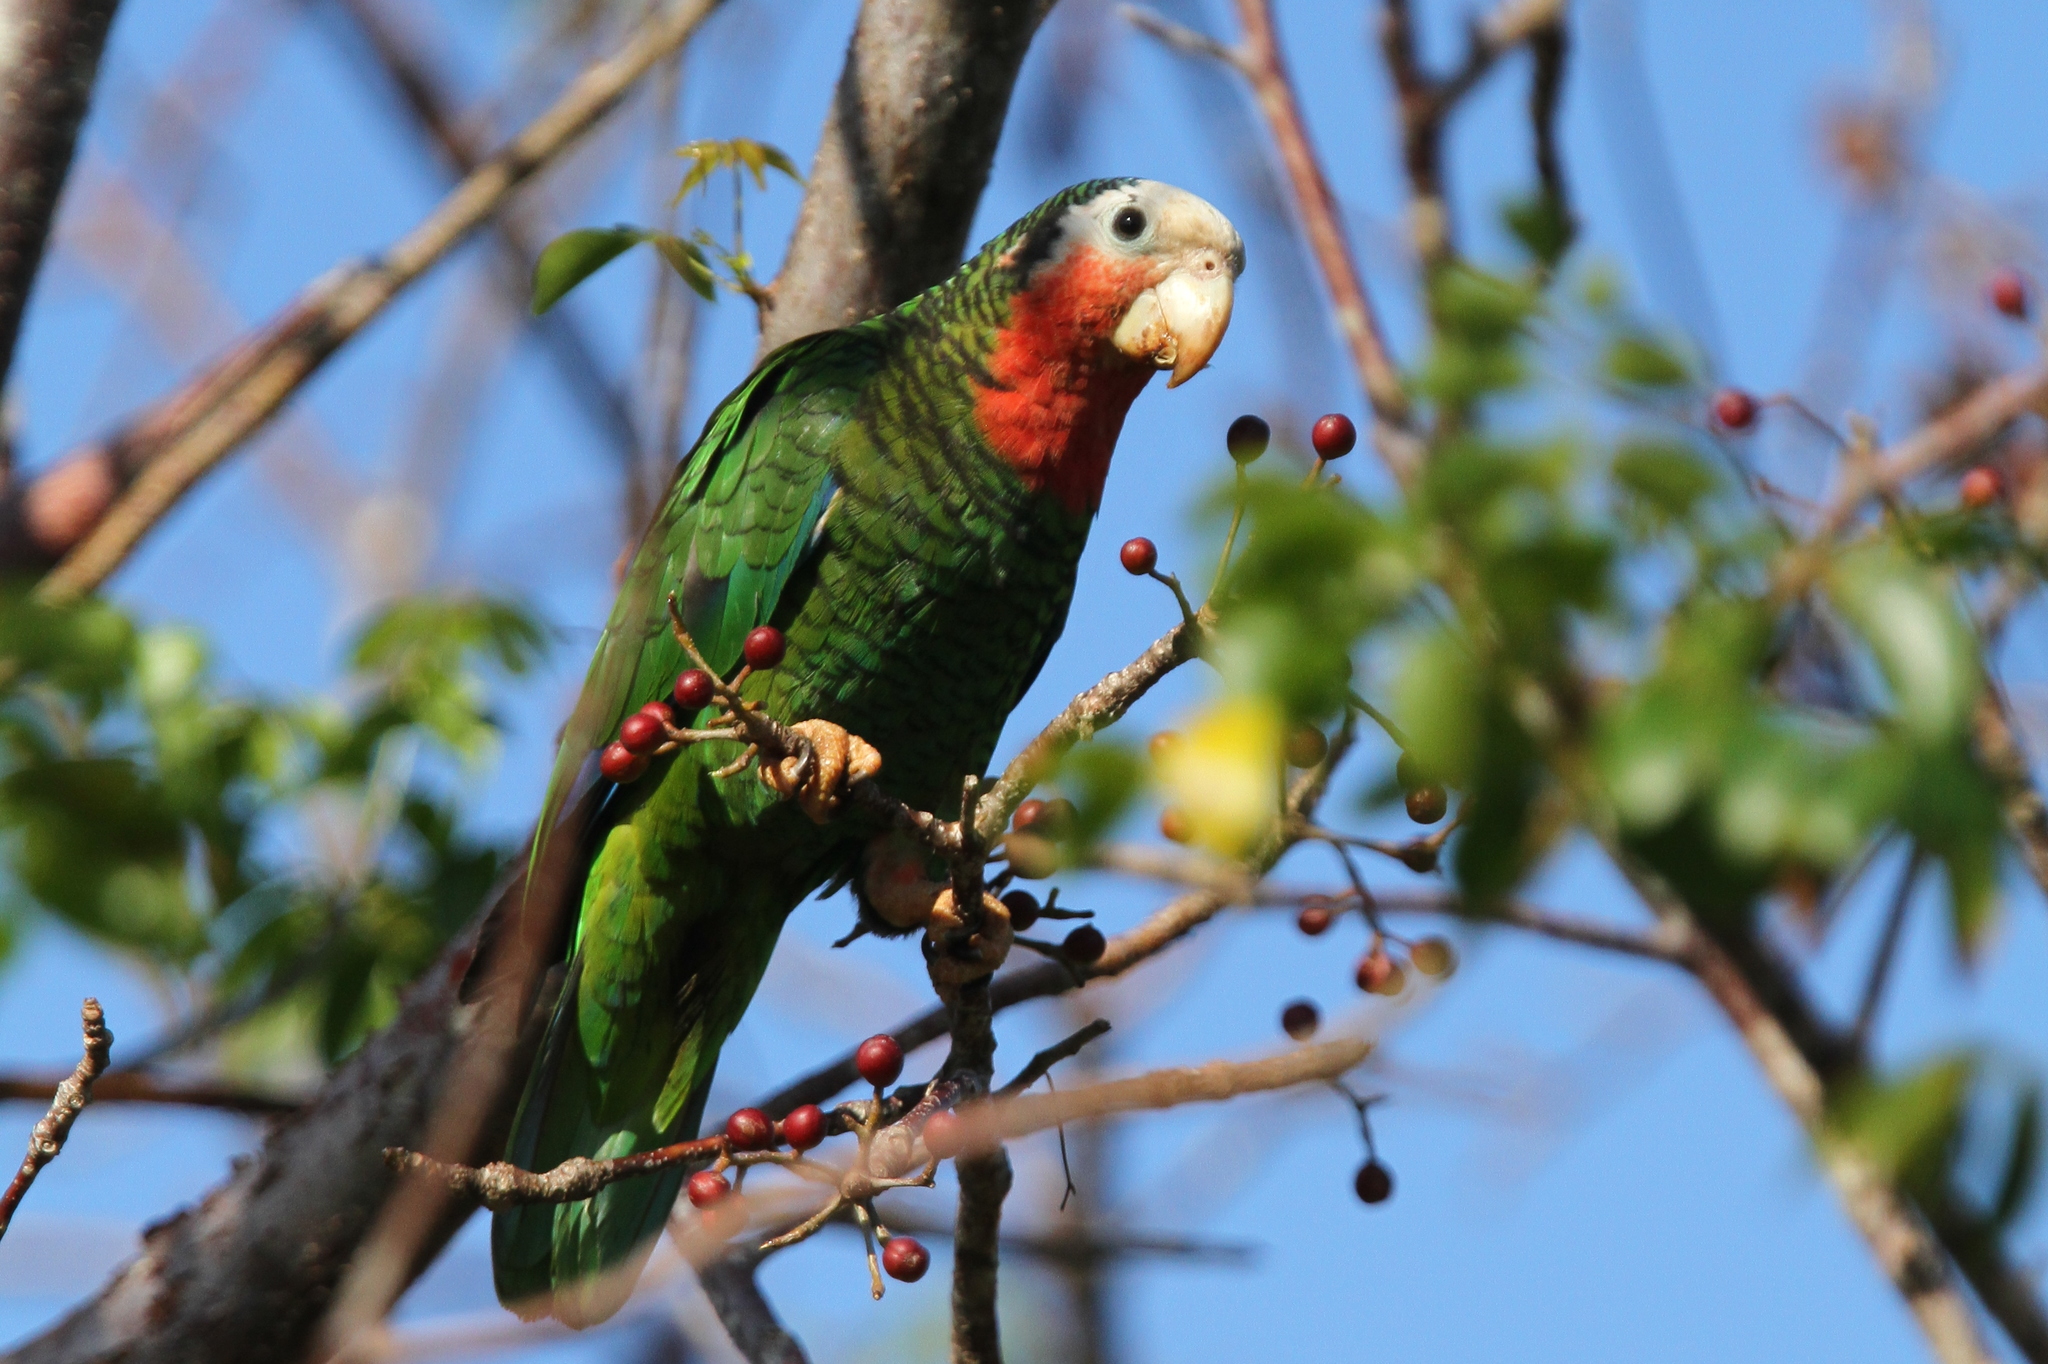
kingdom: Animalia
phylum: Chordata
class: Aves
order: Psittaciformes
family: Psittacidae
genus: Amazona
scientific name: Amazona leucocephala
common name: Cuban amazon
